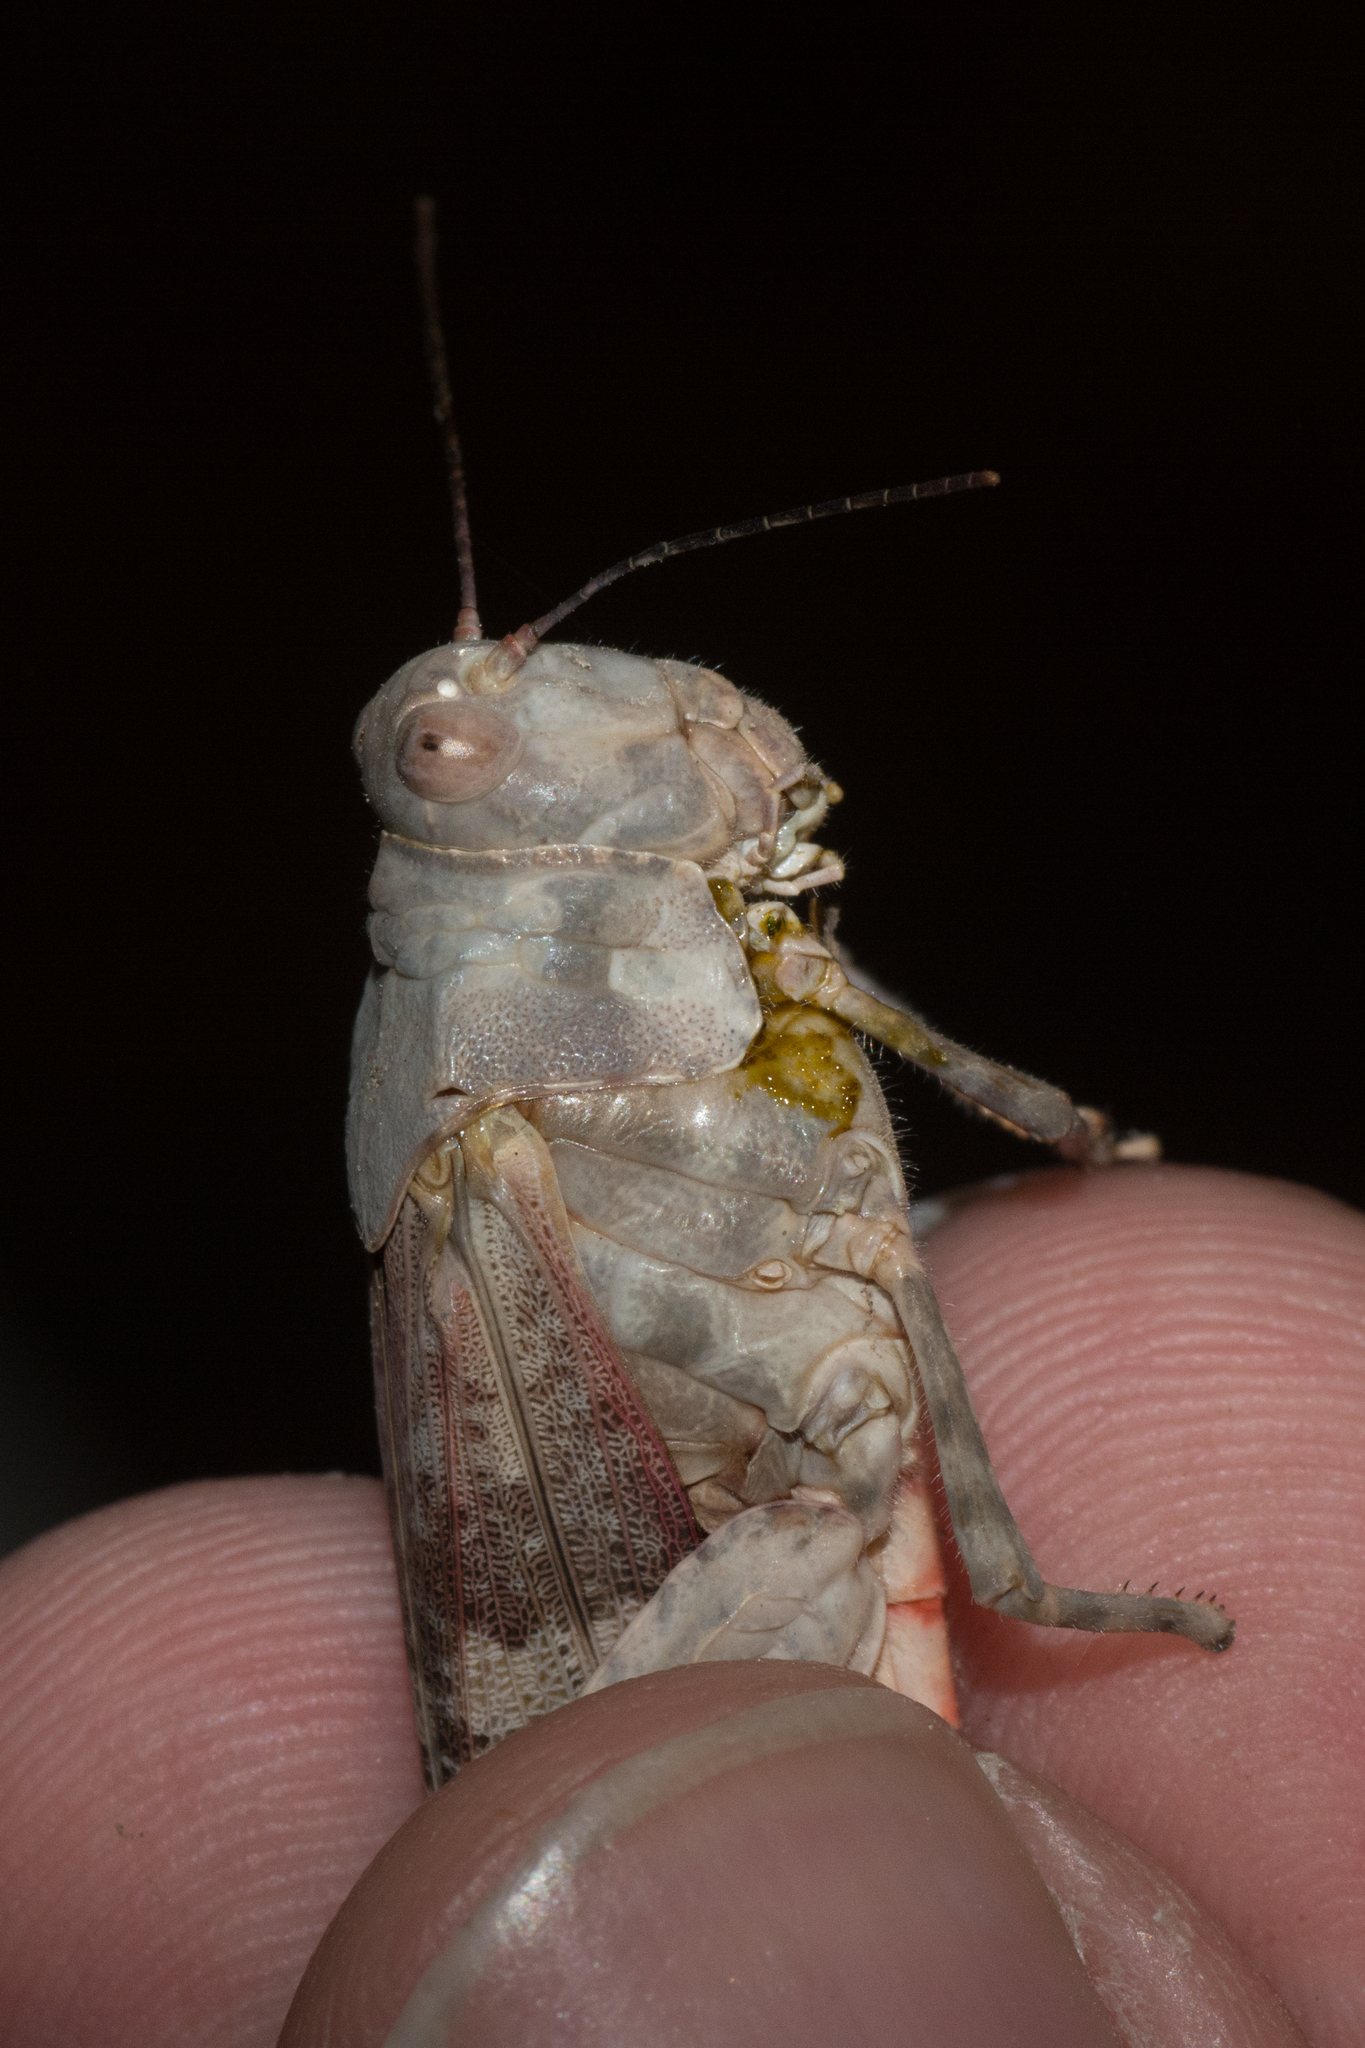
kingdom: Animalia
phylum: Arthropoda
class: Insecta
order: Orthoptera
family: Acrididae
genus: Trimerotropis
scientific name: Trimerotropis melanoptera
